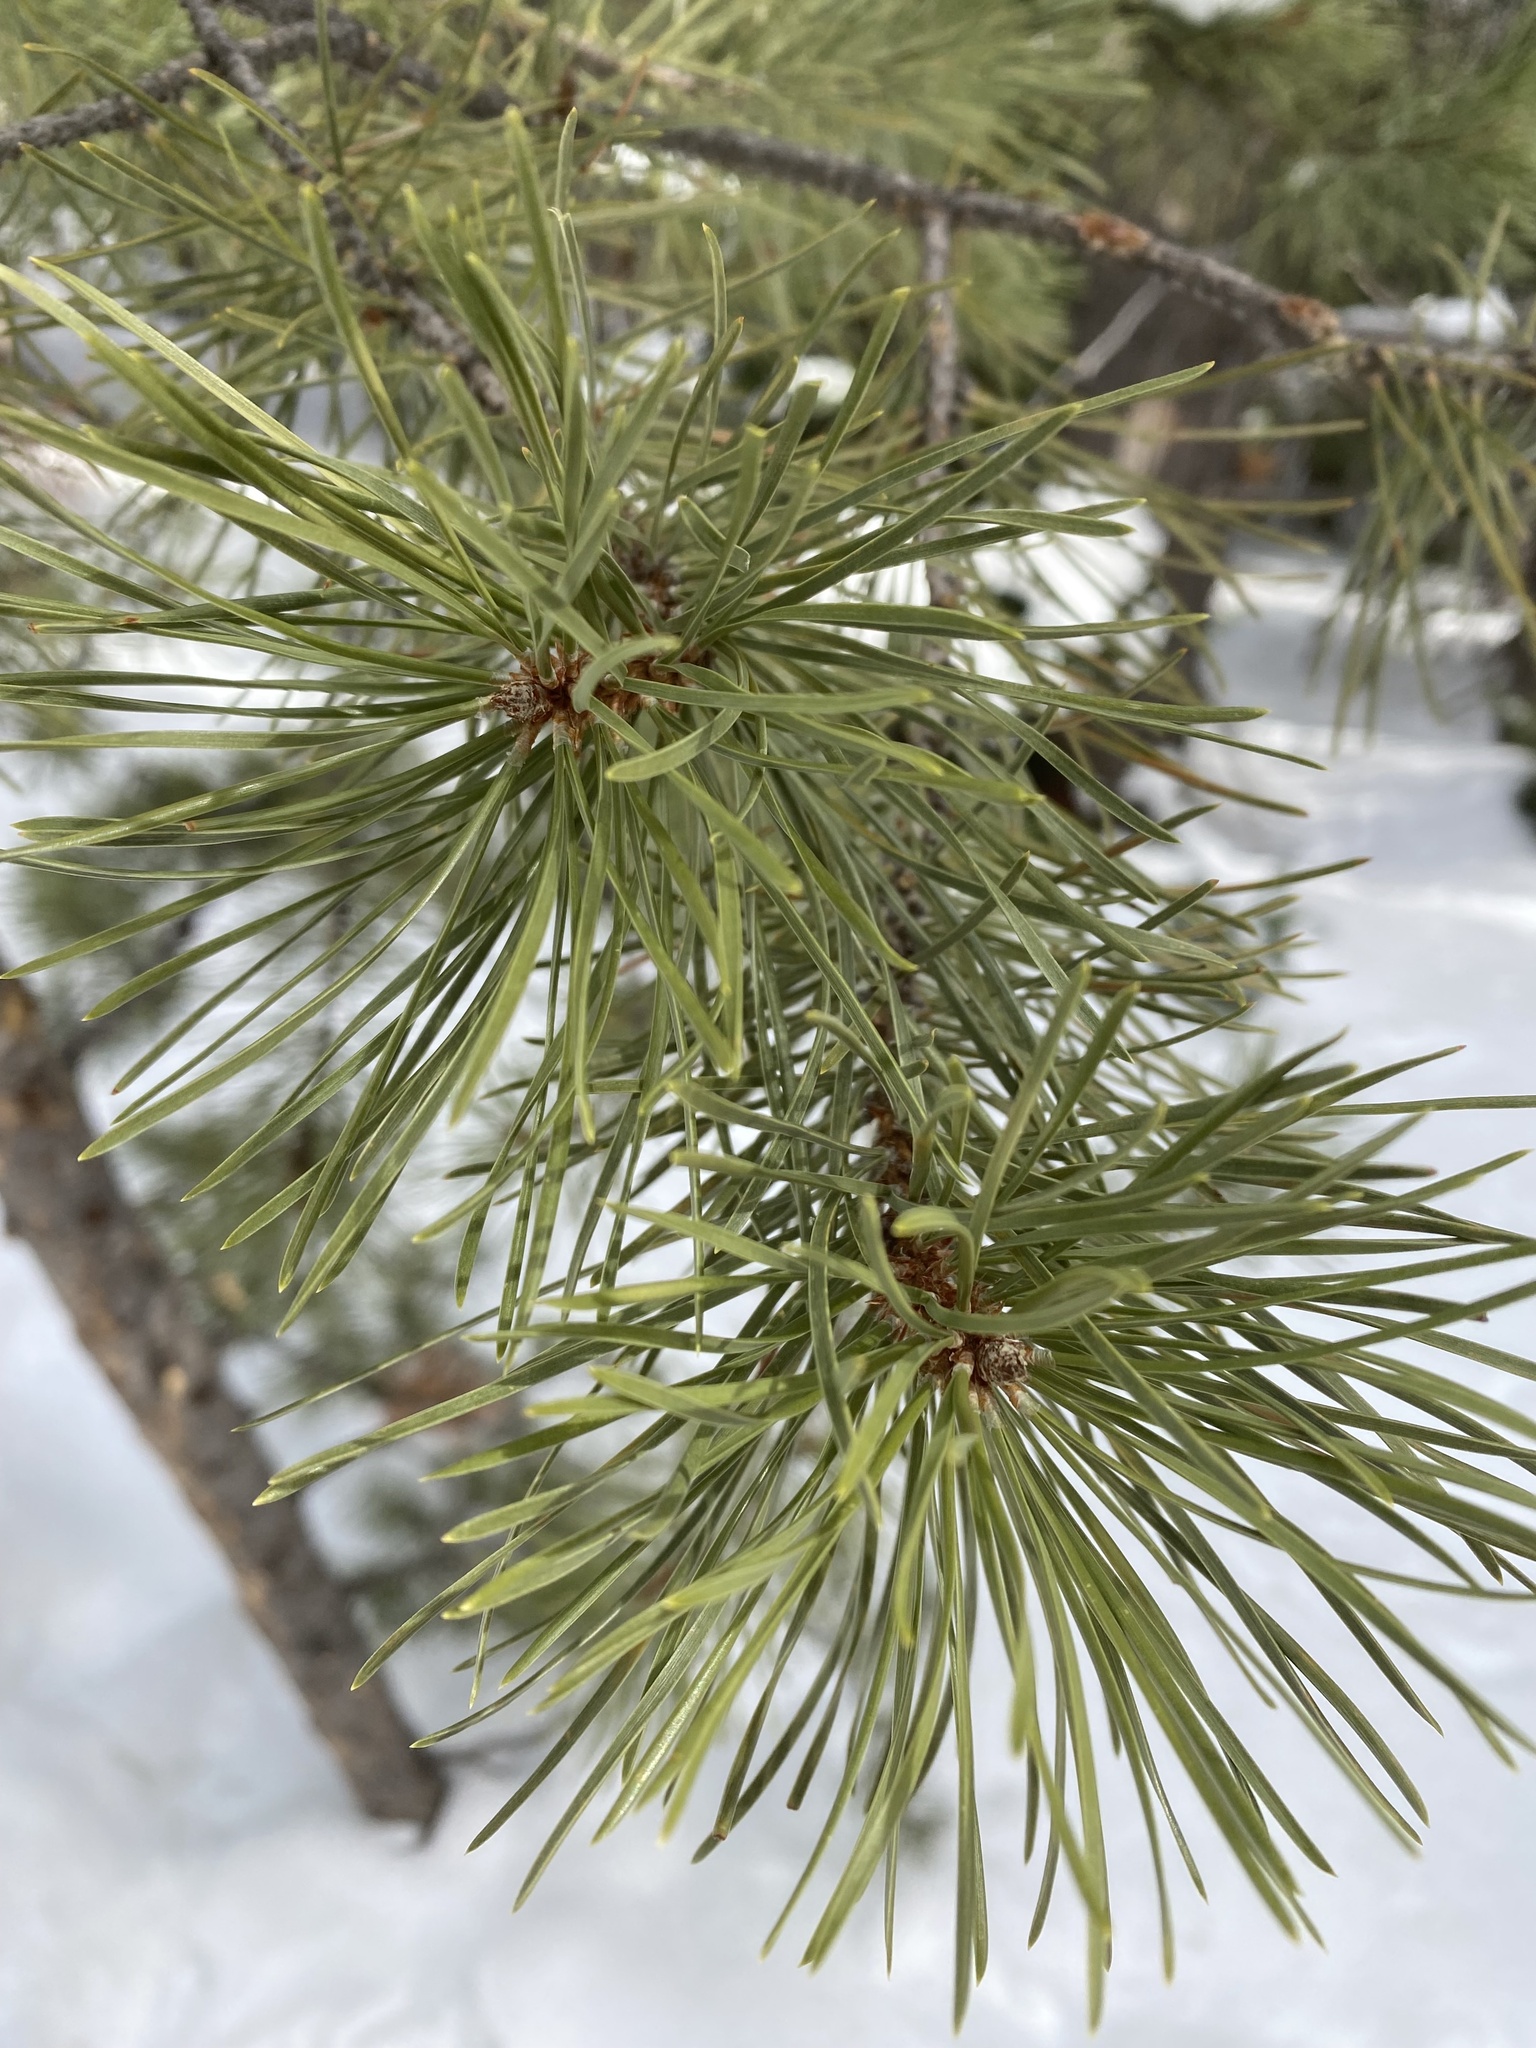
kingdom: Plantae
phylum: Tracheophyta
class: Pinopsida
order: Pinales
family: Pinaceae
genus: Pinus
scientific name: Pinus contorta
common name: Lodgepole pine
